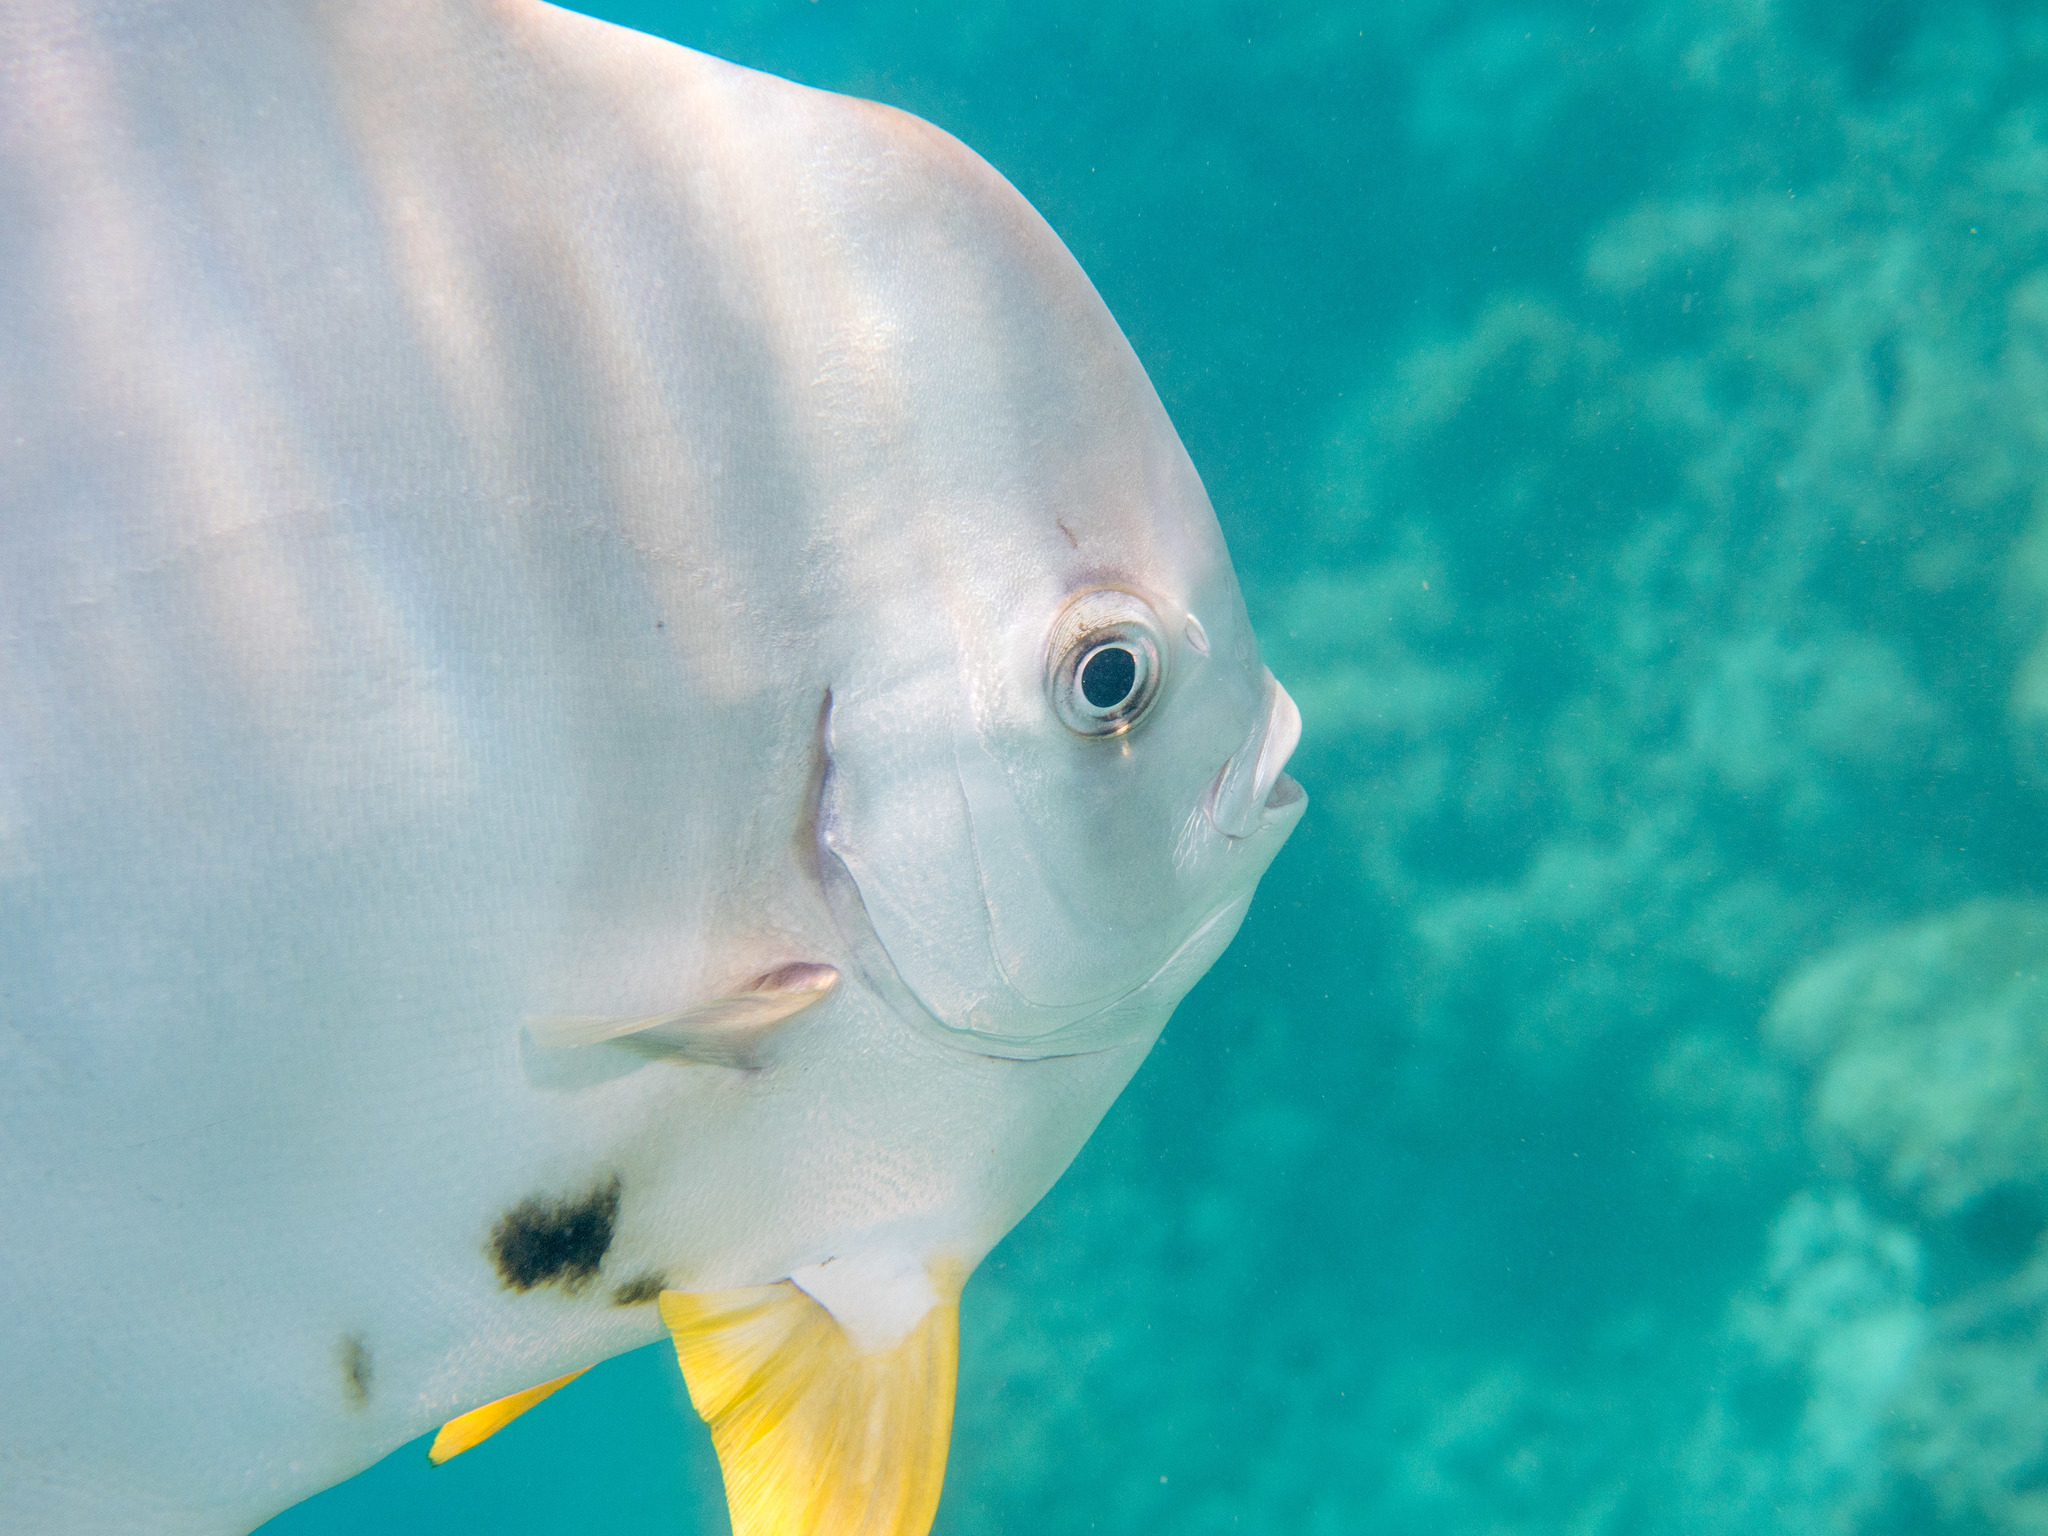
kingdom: Animalia
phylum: Chordata
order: Perciformes
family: Ephippidae
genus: Platax
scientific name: Platax teira
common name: Longfin baitfish
